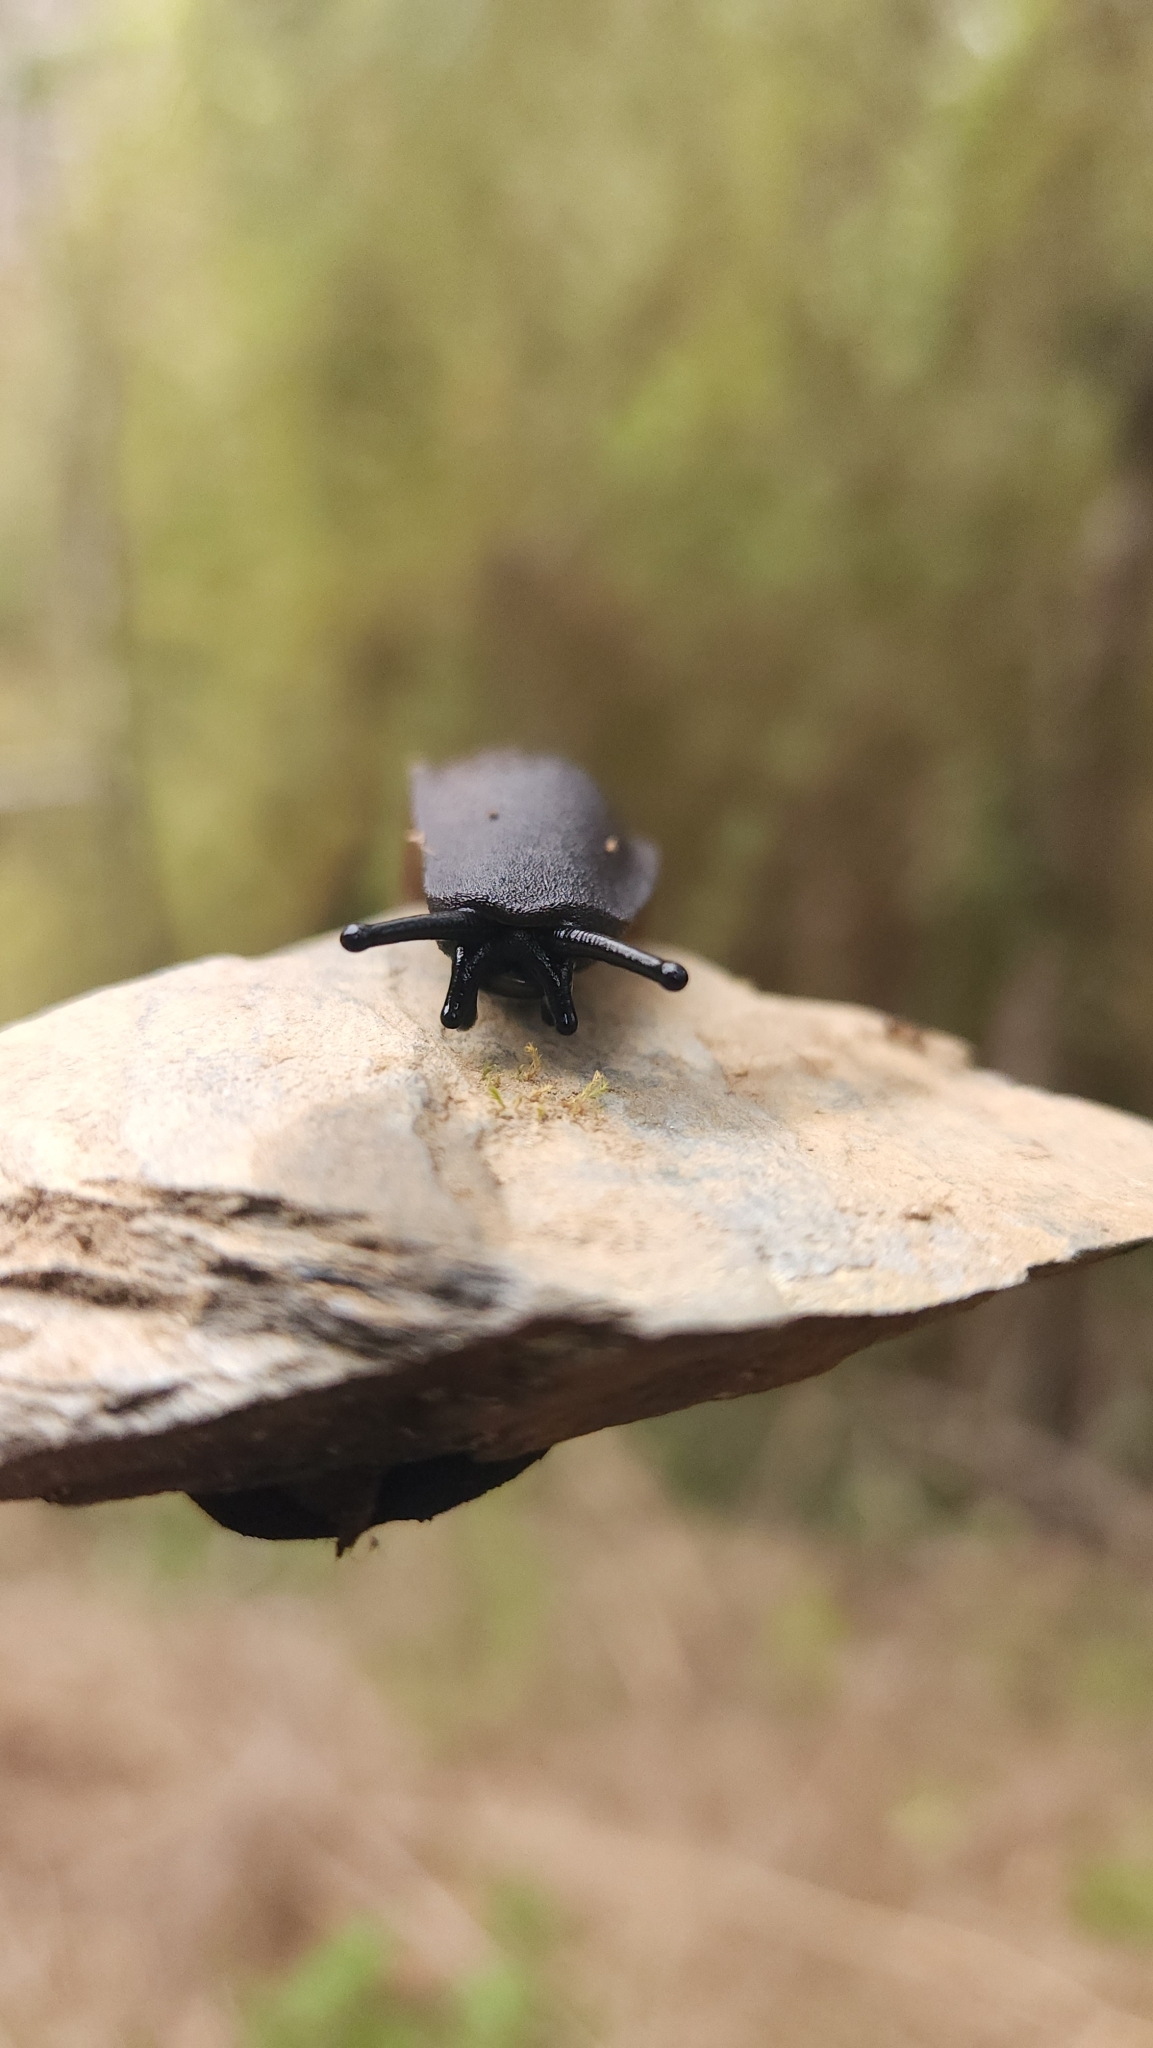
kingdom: Animalia
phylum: Mollusca
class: Gastropoda
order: Systellommatophora
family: Veronicellidae
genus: Phyllocaulis
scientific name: Phyllocaulis gayi
